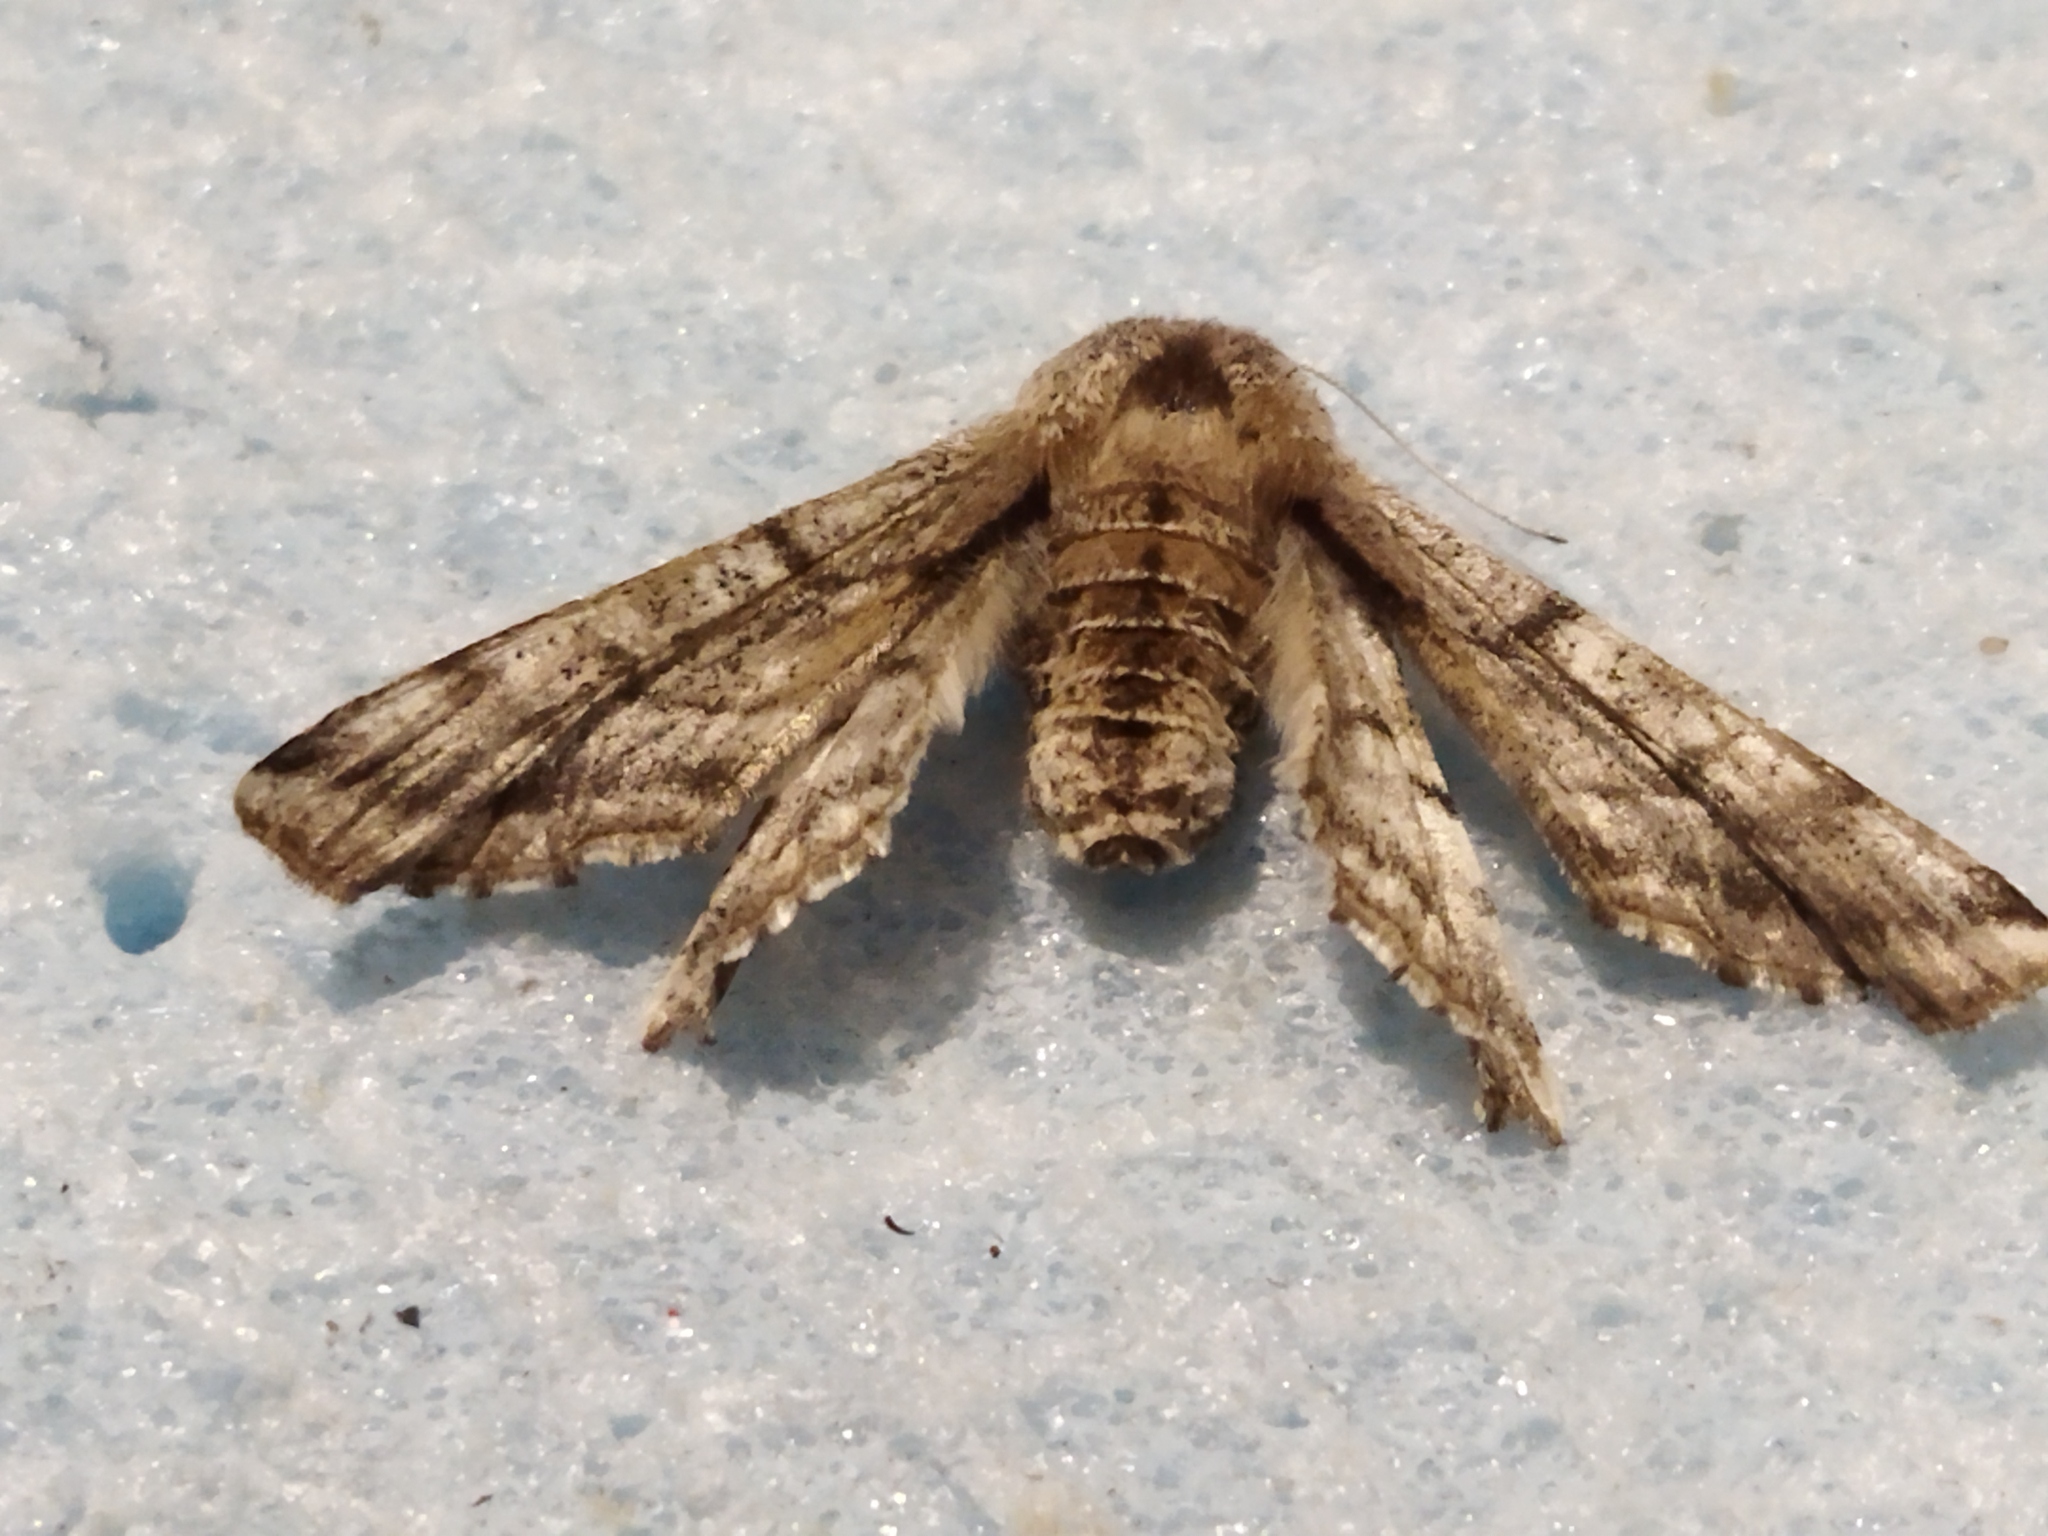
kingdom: Animalia
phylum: Arthropoda
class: Insecta
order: Lepidoptera
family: Geometridae
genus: Apochima
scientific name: Apochima flabellaria
